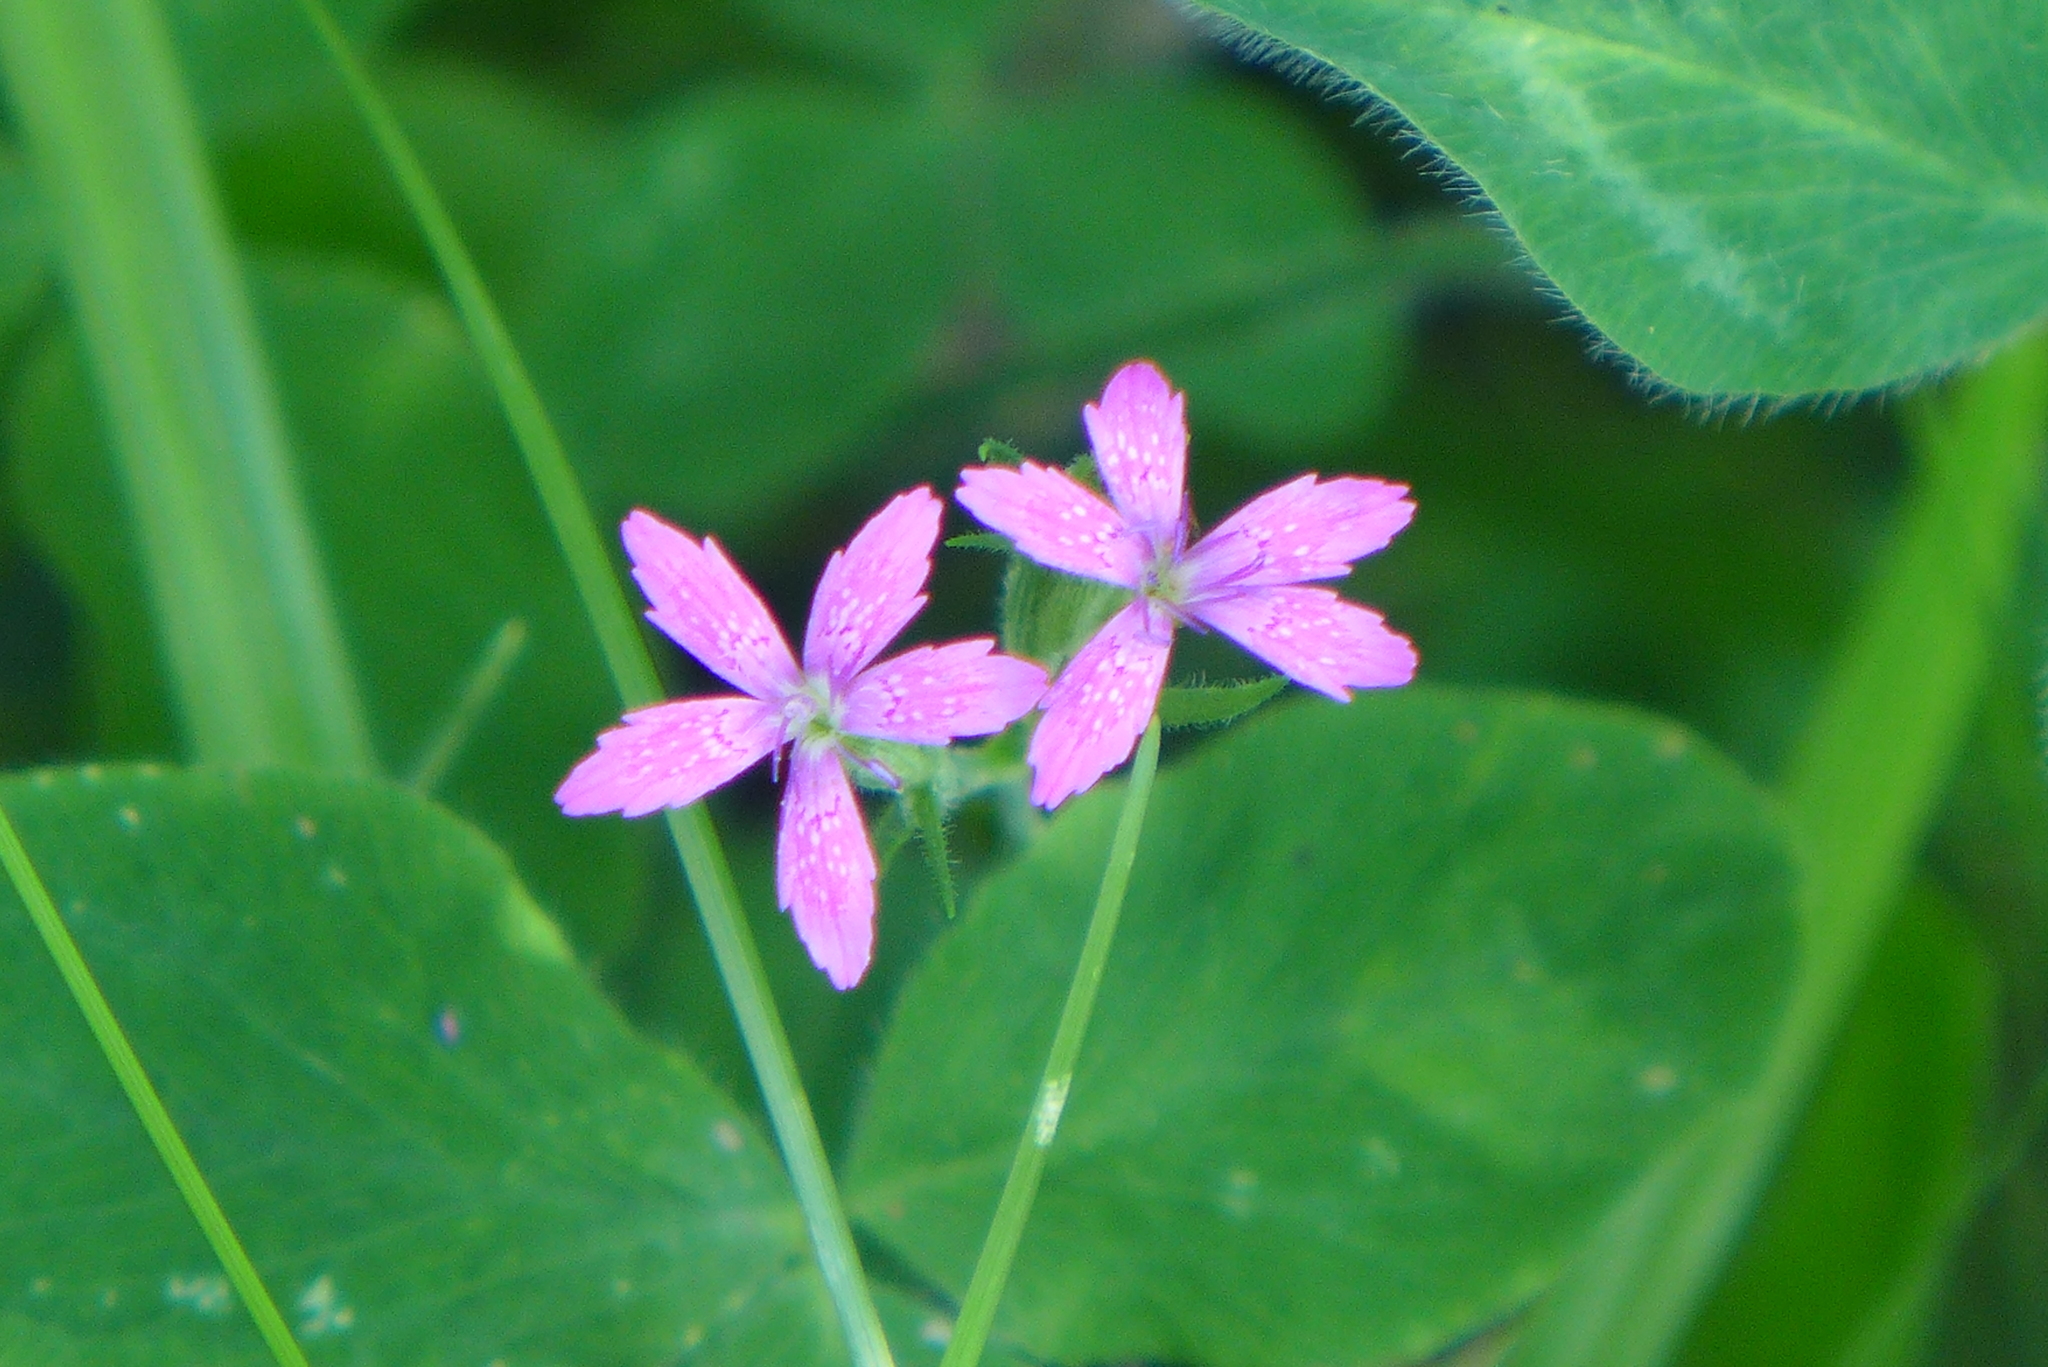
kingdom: Plantae
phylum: Tracheophyta
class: Magnoliopsida
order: Caryophyllales
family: Caryophyllaceae
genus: Dianthus
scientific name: Dianthus armeria
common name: Deptford pink
